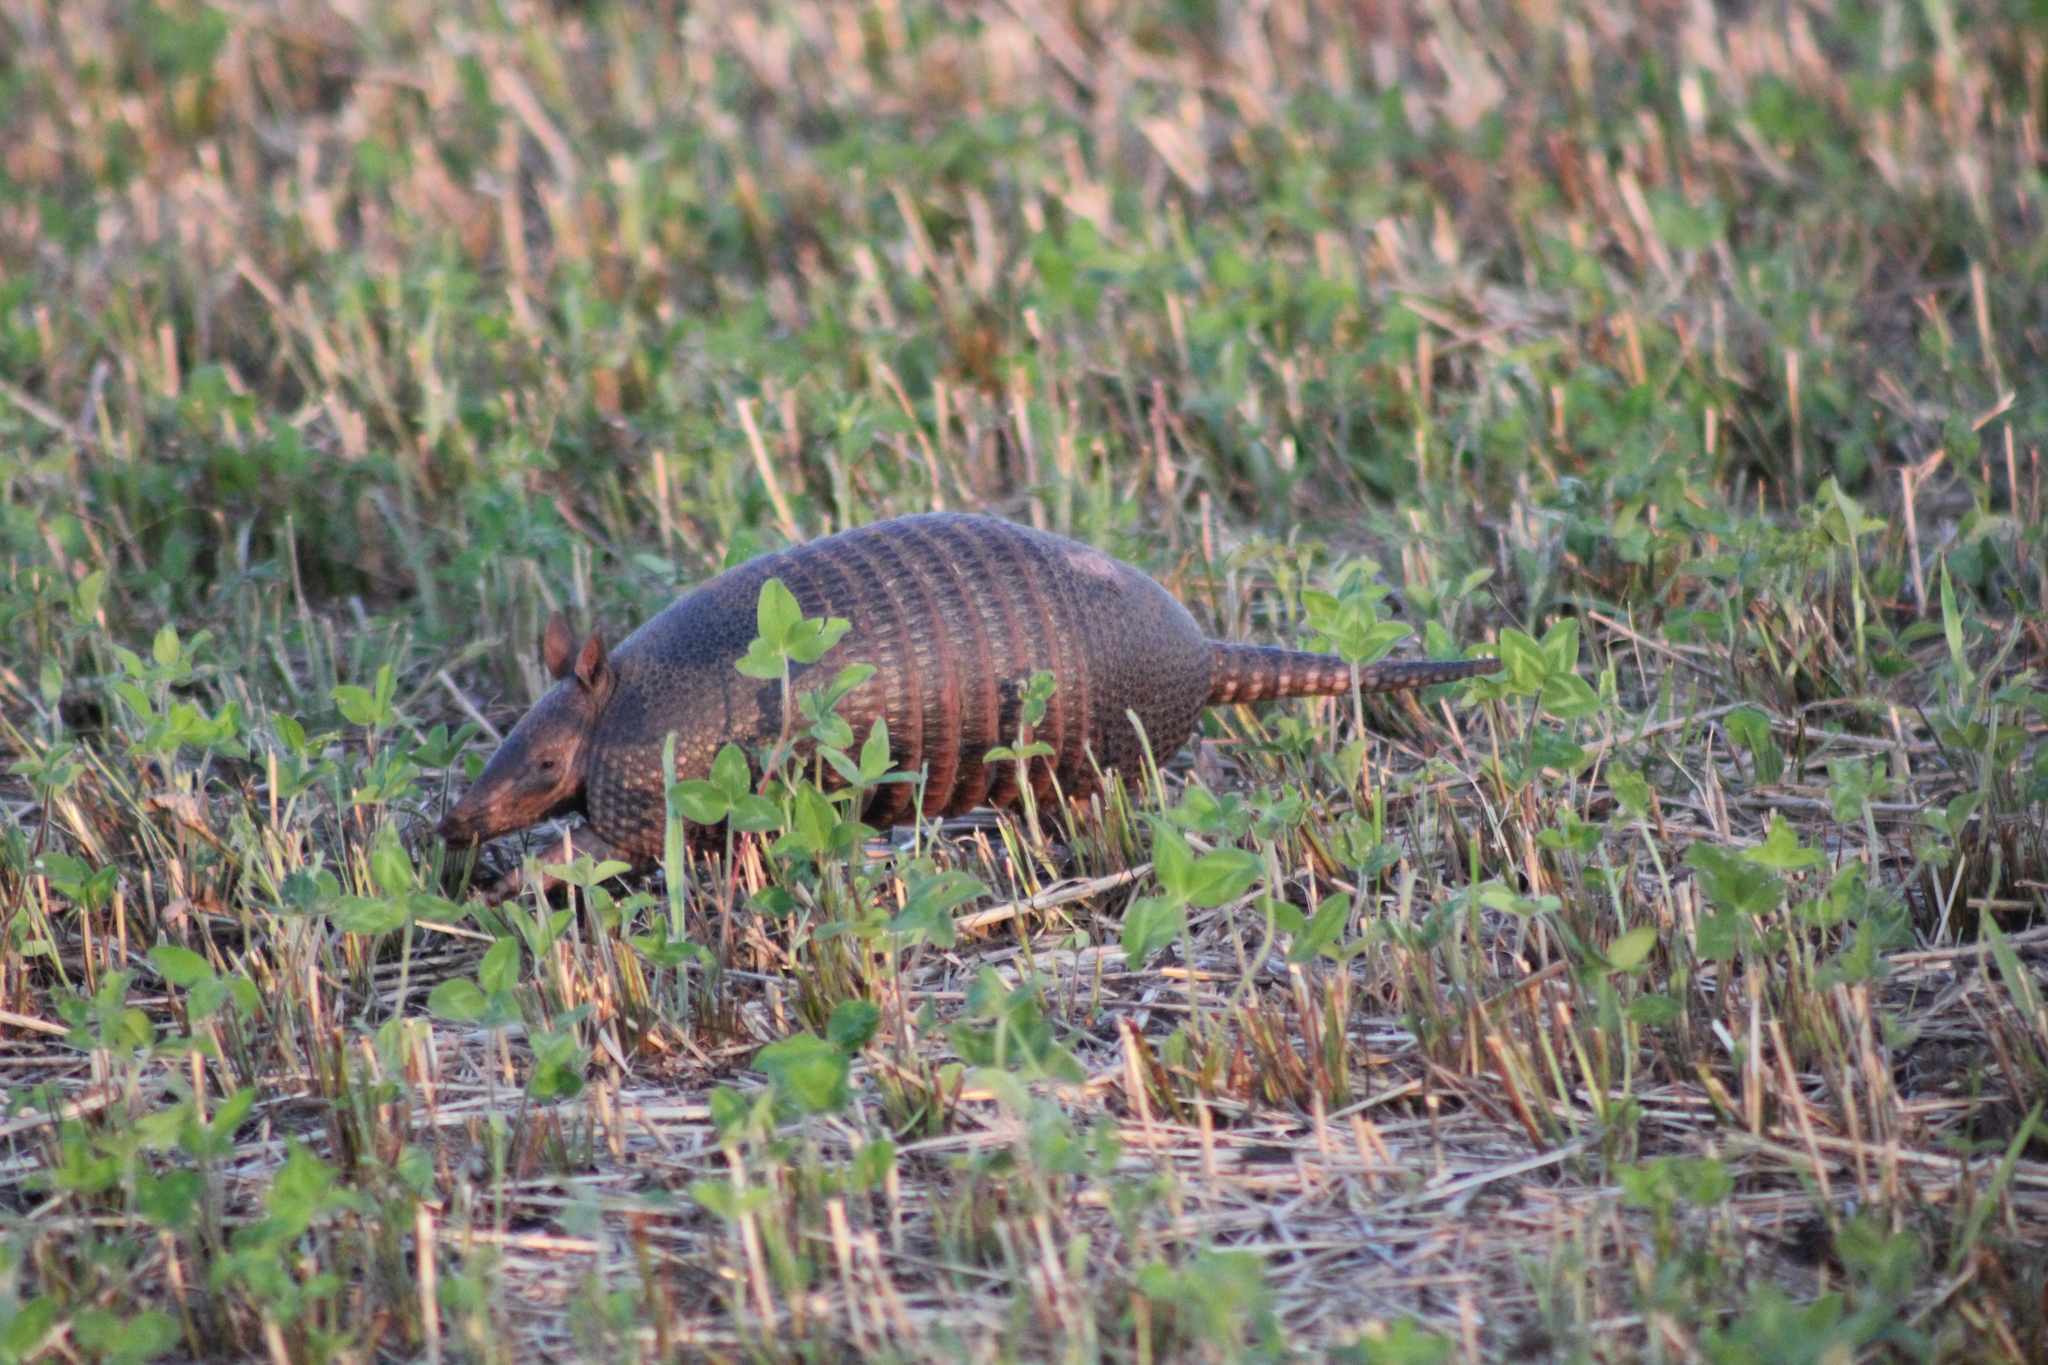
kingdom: Animalia
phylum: Chordata
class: Mammalia
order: Cingulata
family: Dasypodidae
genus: Dasypus
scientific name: Dasypus septemcinctus
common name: Seven-banded armadillo
